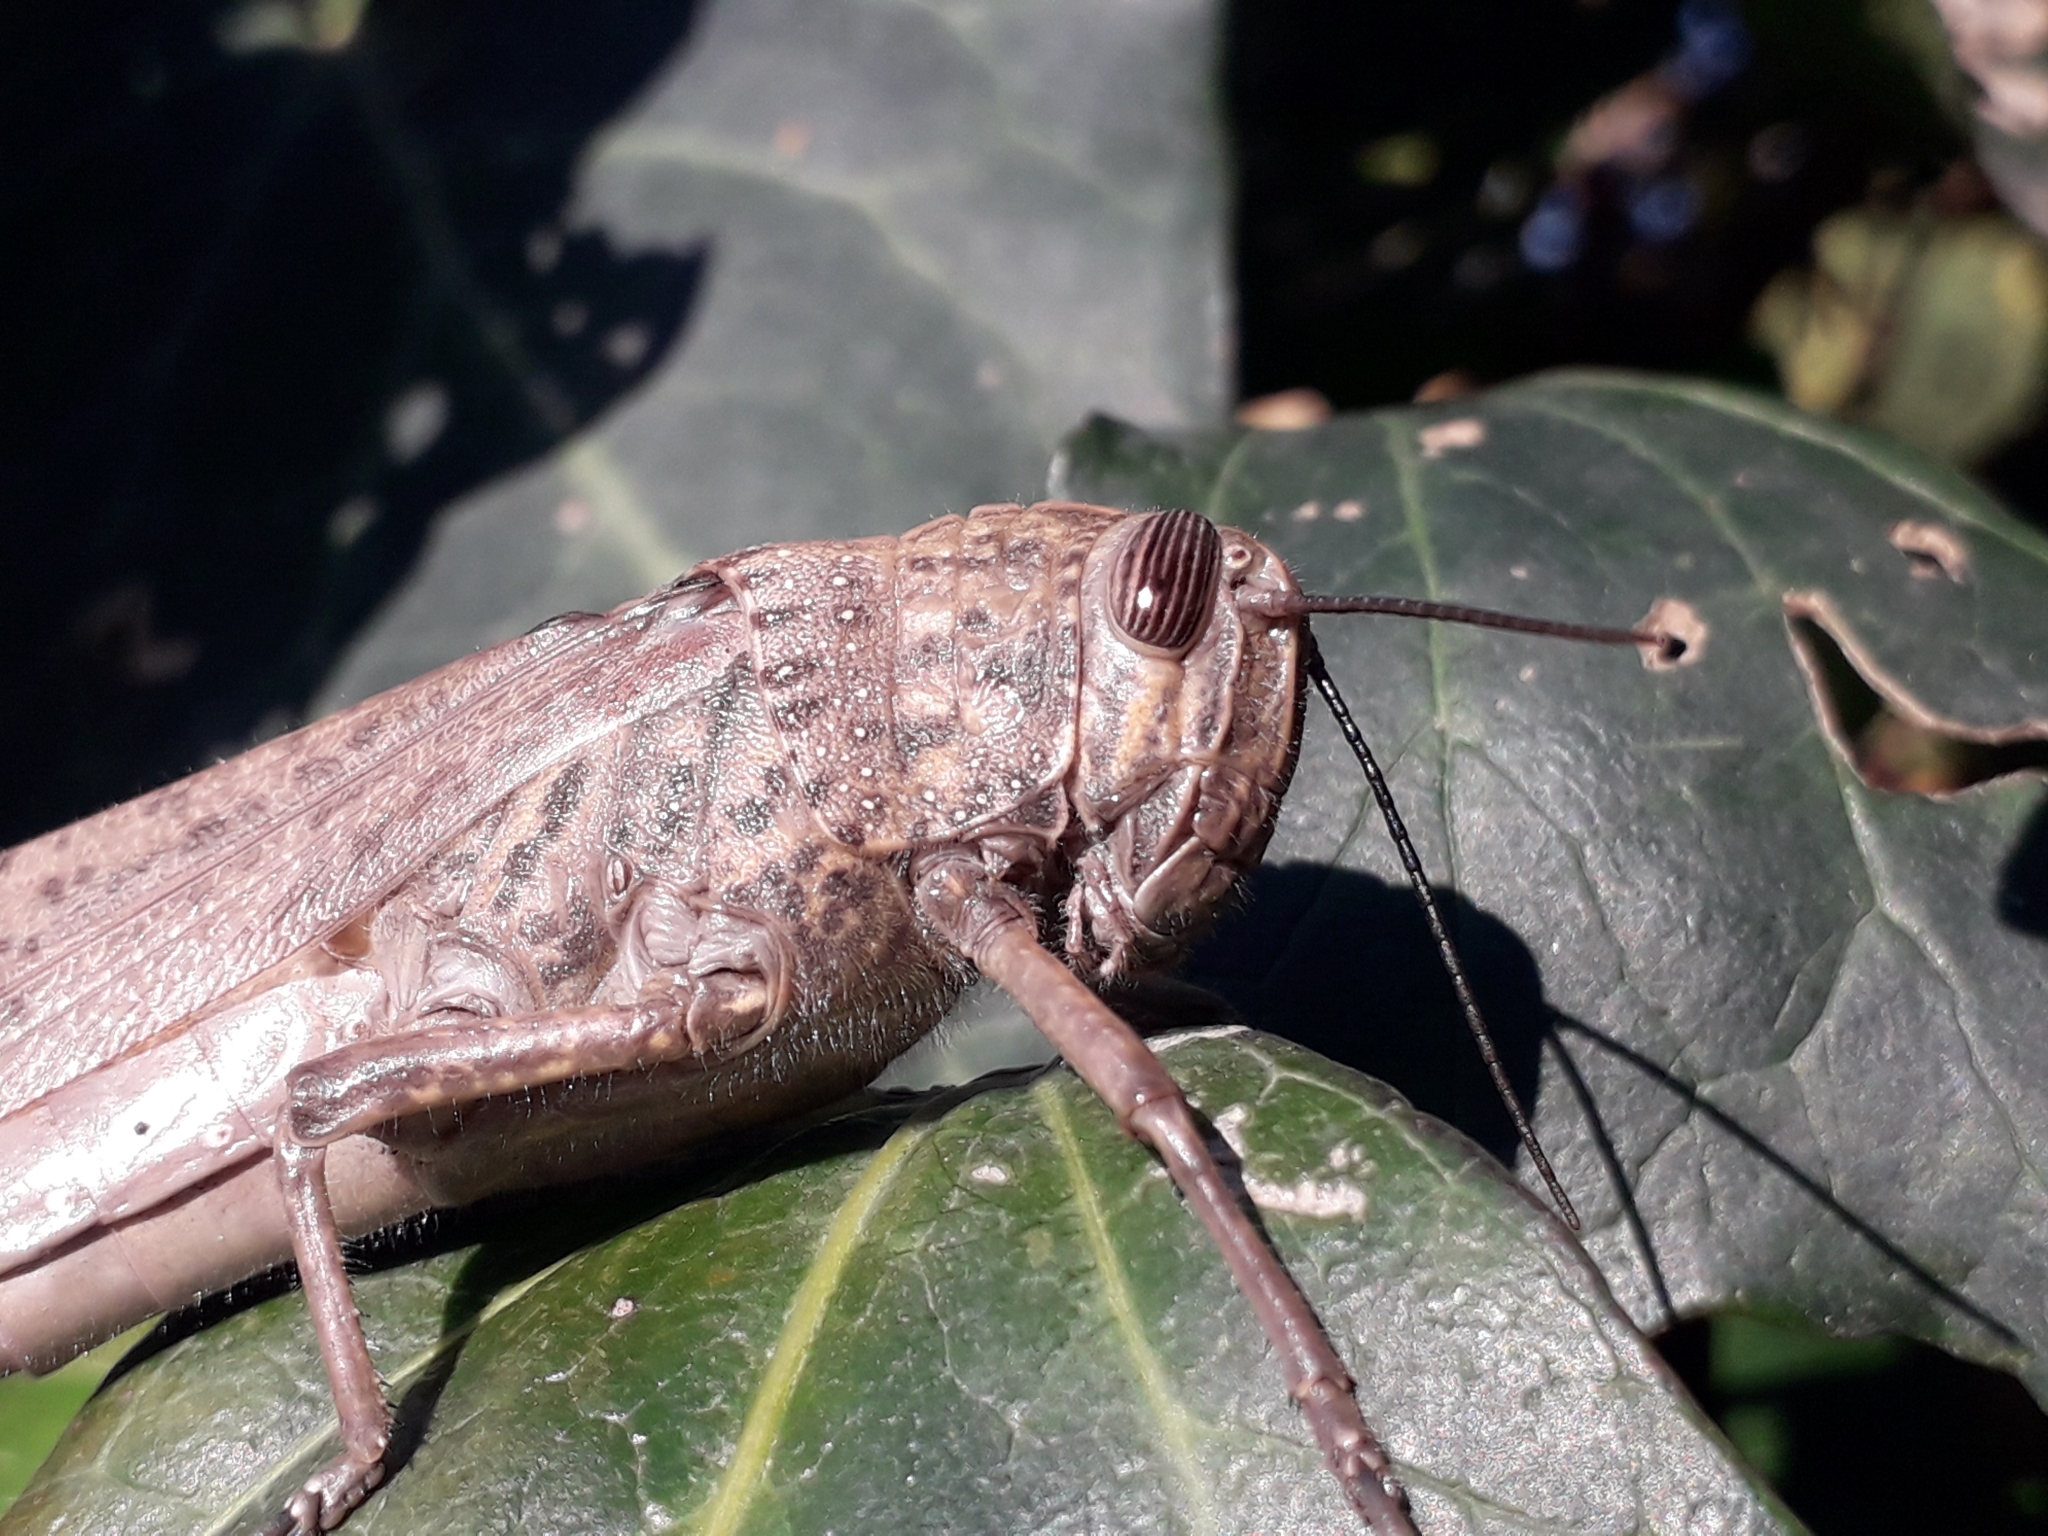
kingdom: Animalia
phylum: Arthropoda
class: Insecta
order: Orthoptera
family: Acrididae
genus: Anacridium
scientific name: Anacridium aegyptium
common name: Egyptian grasshopper
